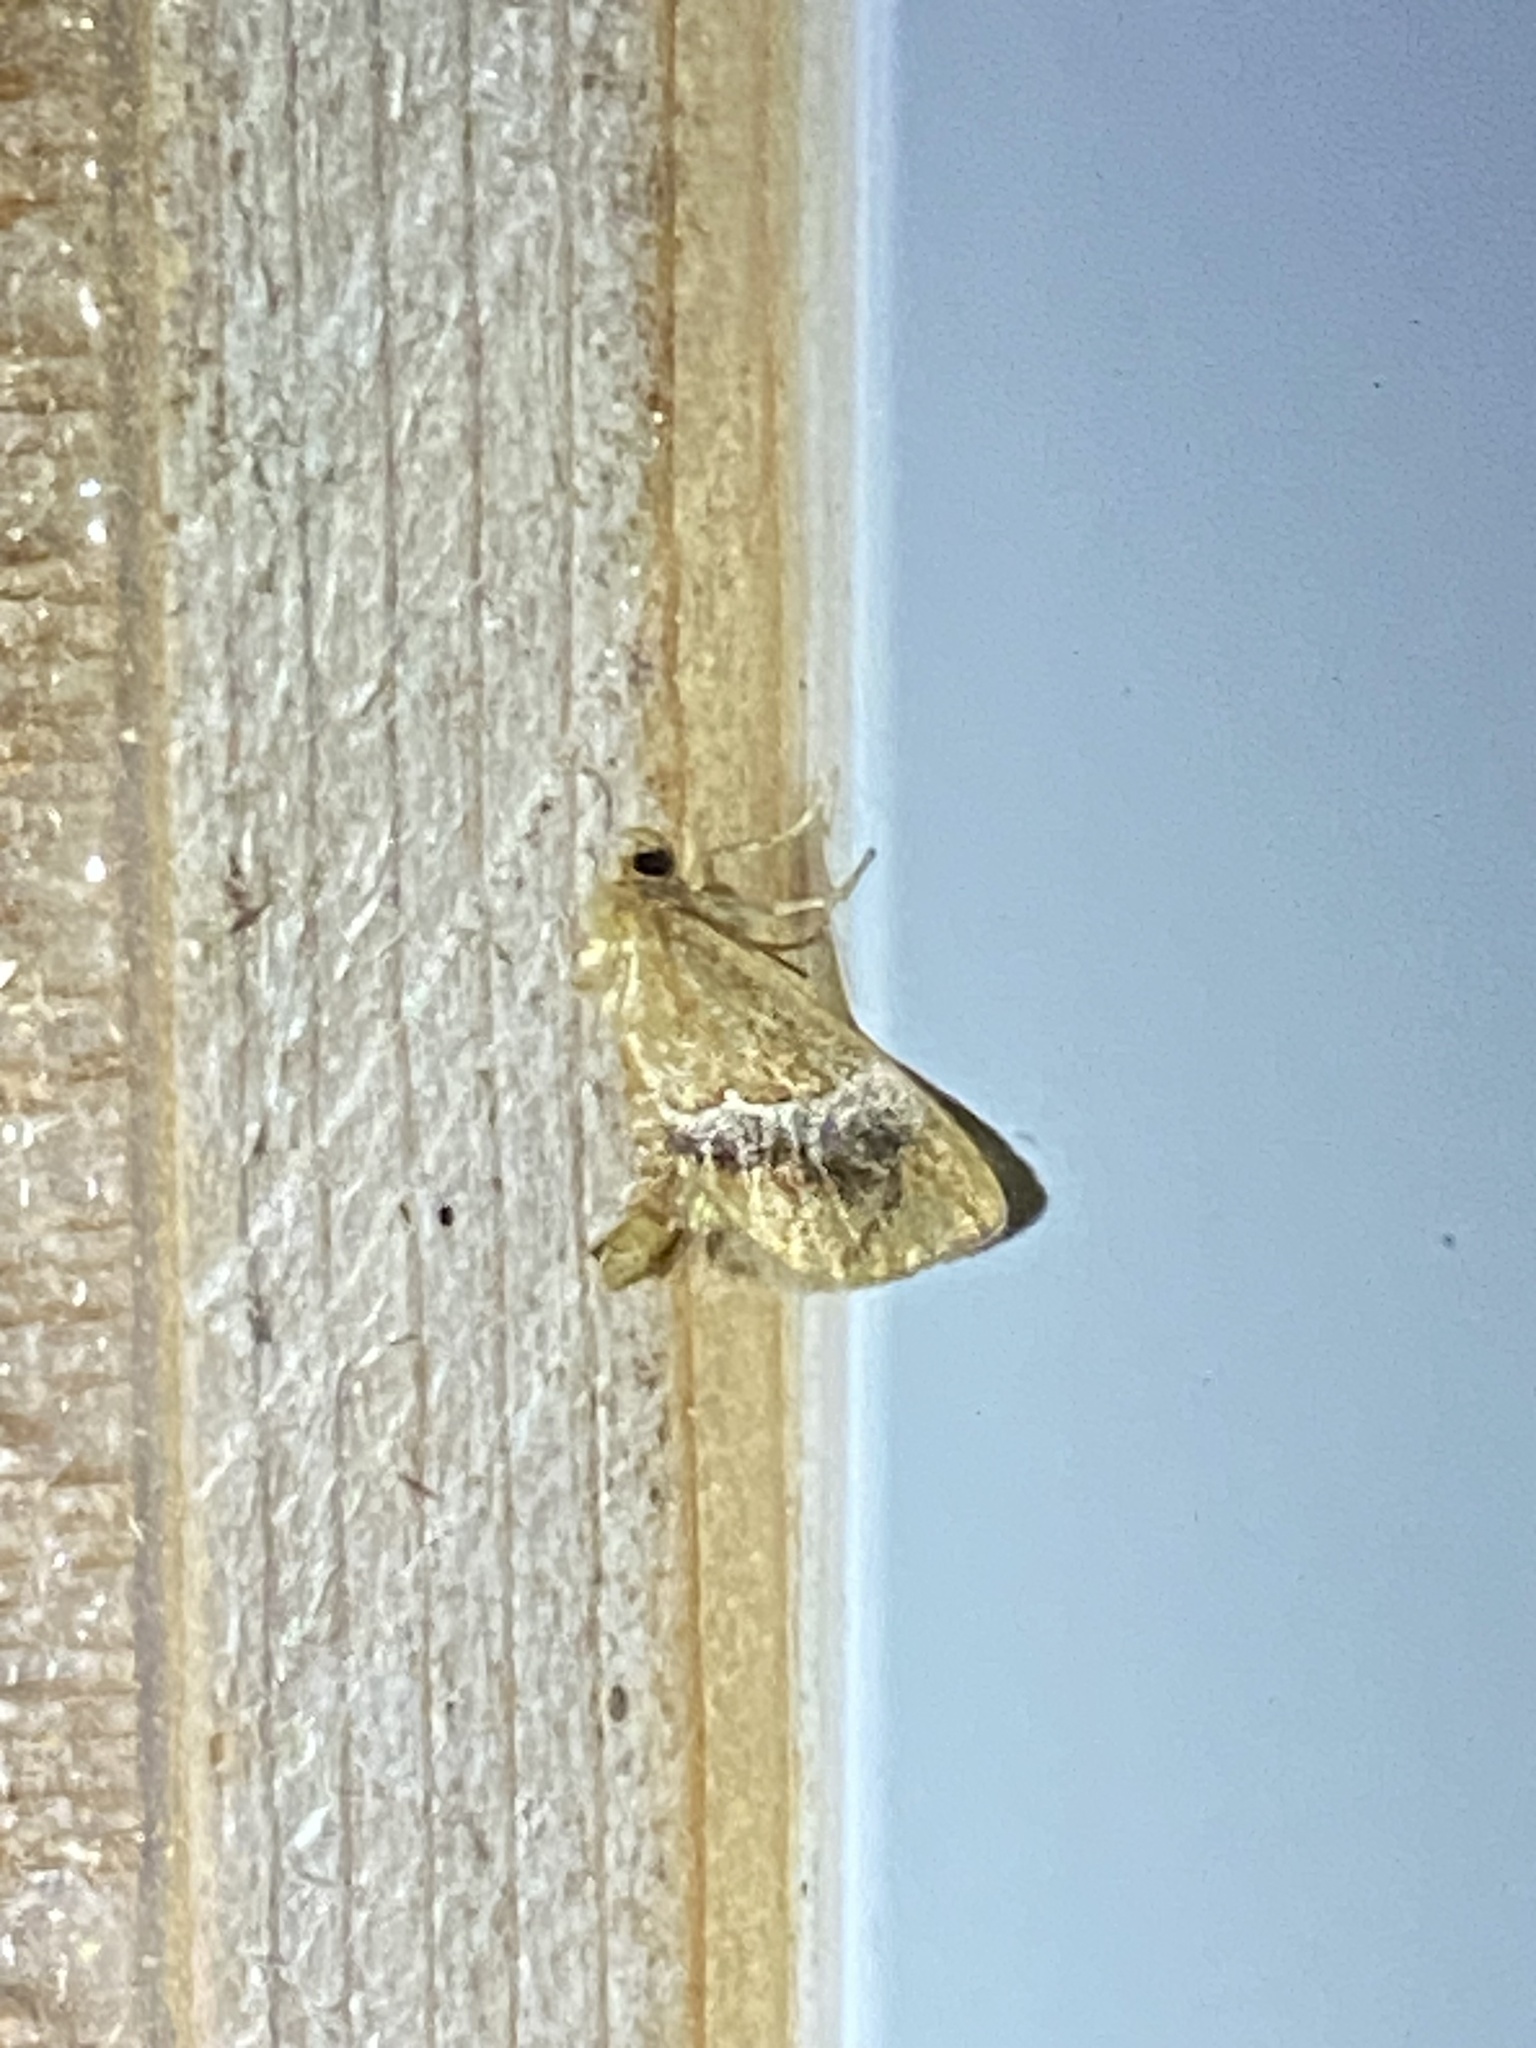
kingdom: Animalia
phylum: Arthropoda
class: Insecta
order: Lepidoptera
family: Limacodidae
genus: Lithacodes
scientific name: Lithacodes fasciola
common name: Yellow-shouldered slug moth
